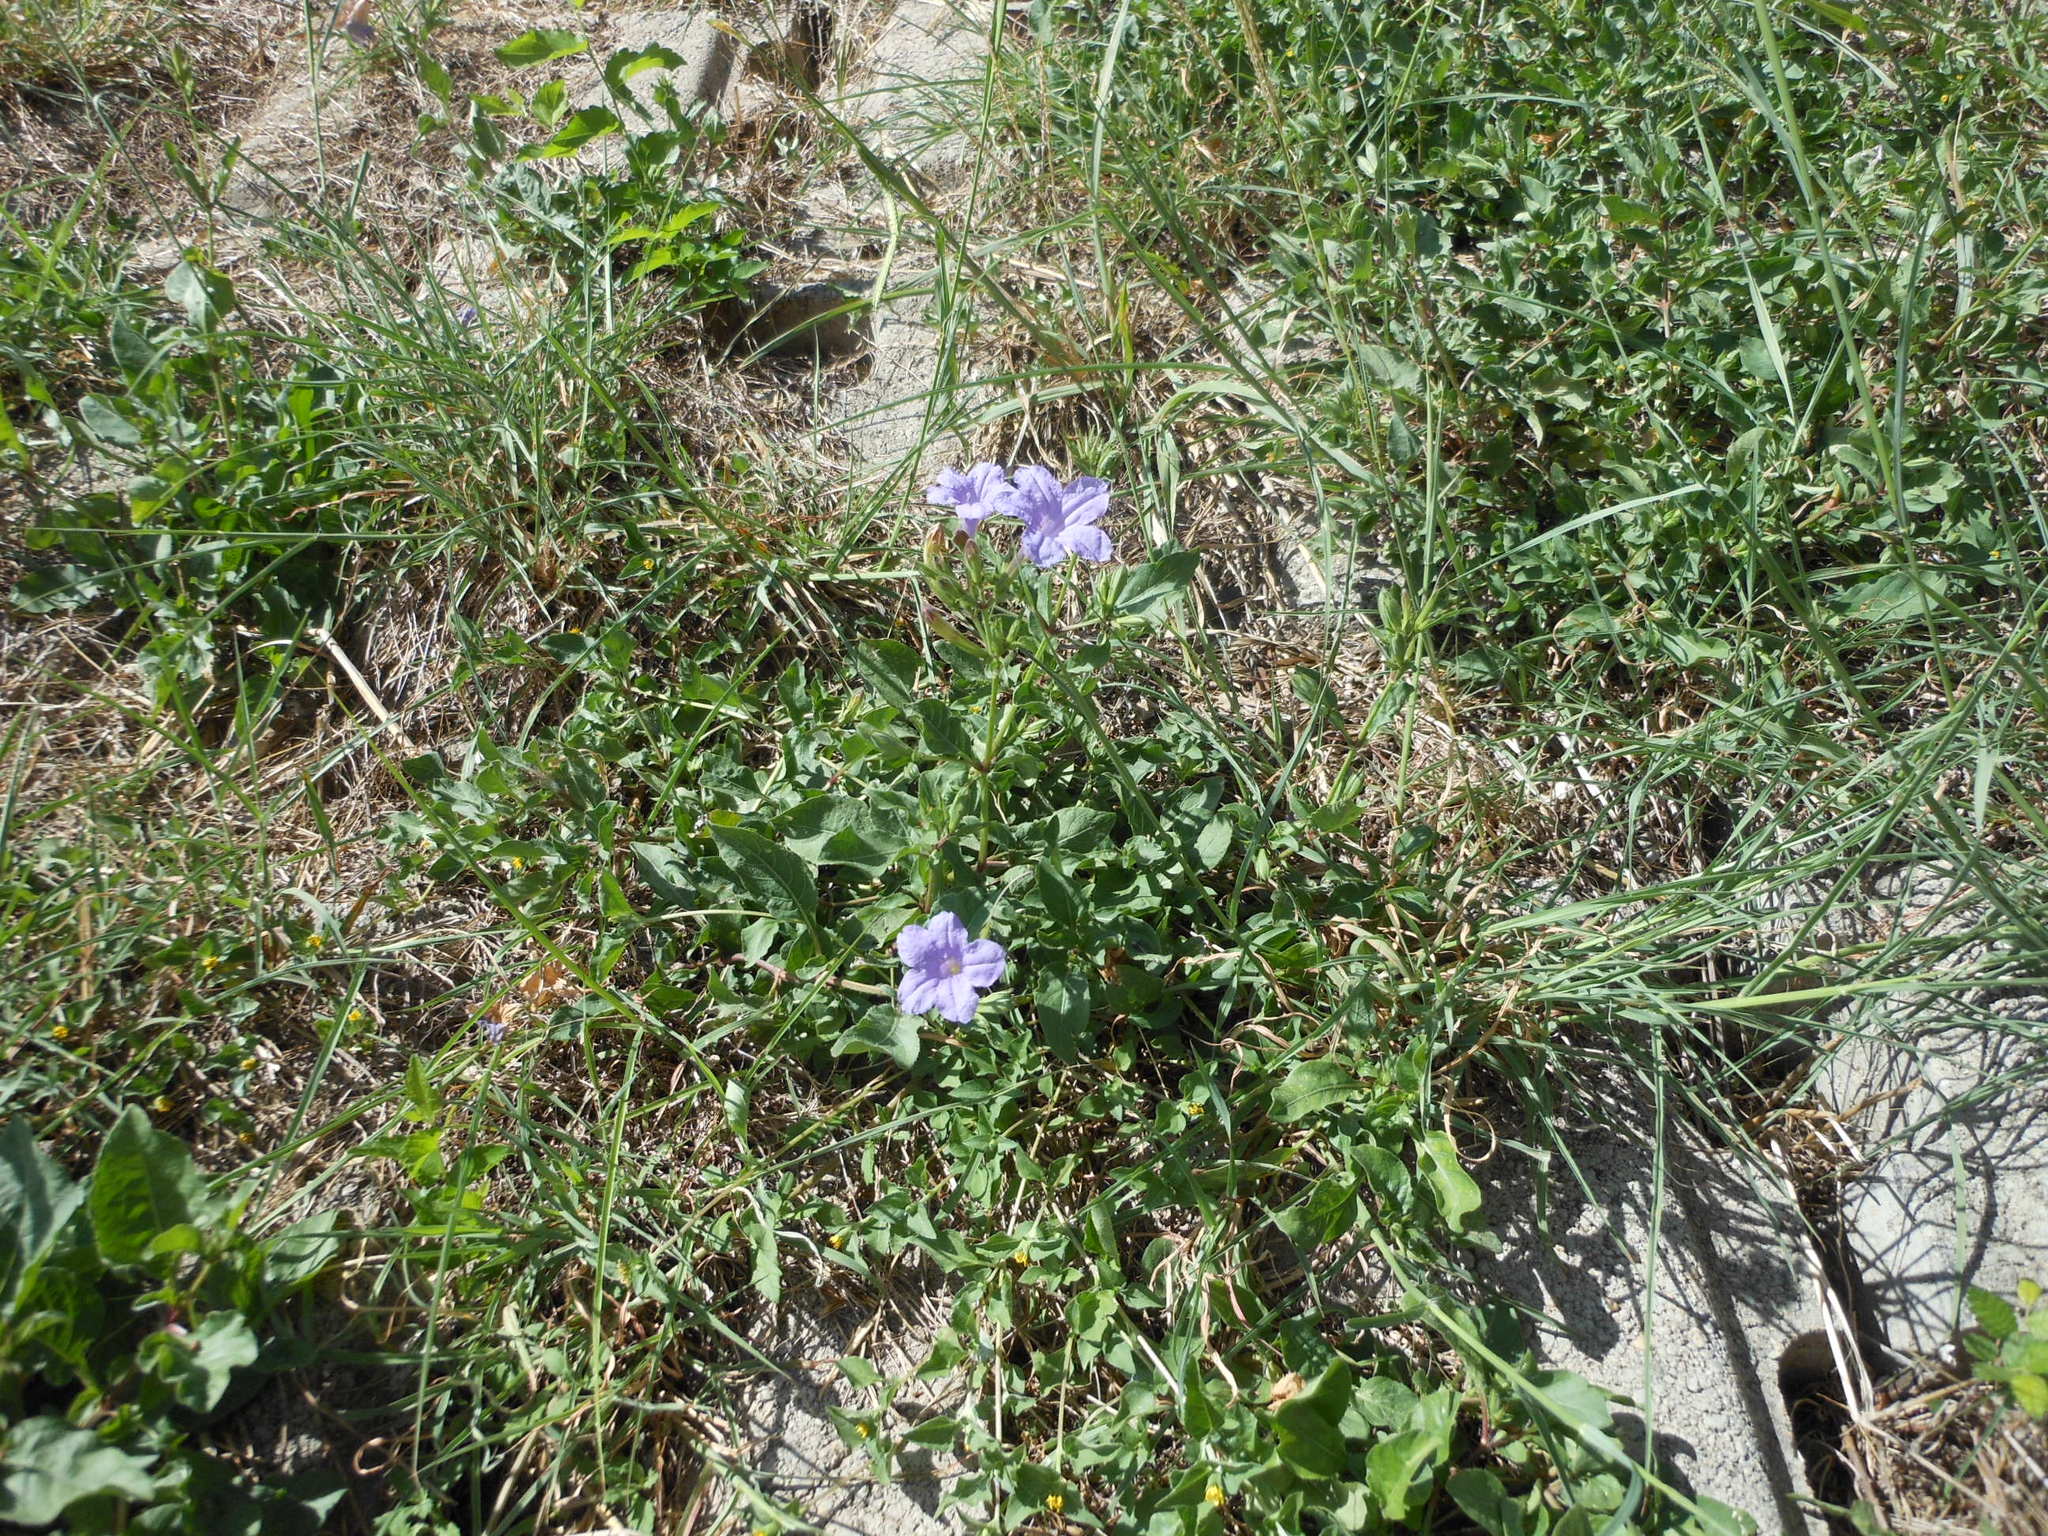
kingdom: Plantae
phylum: Tracheophyta
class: Magnoliopsida
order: Lamiales
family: Acanthaceae
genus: Ruellia
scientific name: Ruellia ciliatiflora
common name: Hairyflower wild petunia
